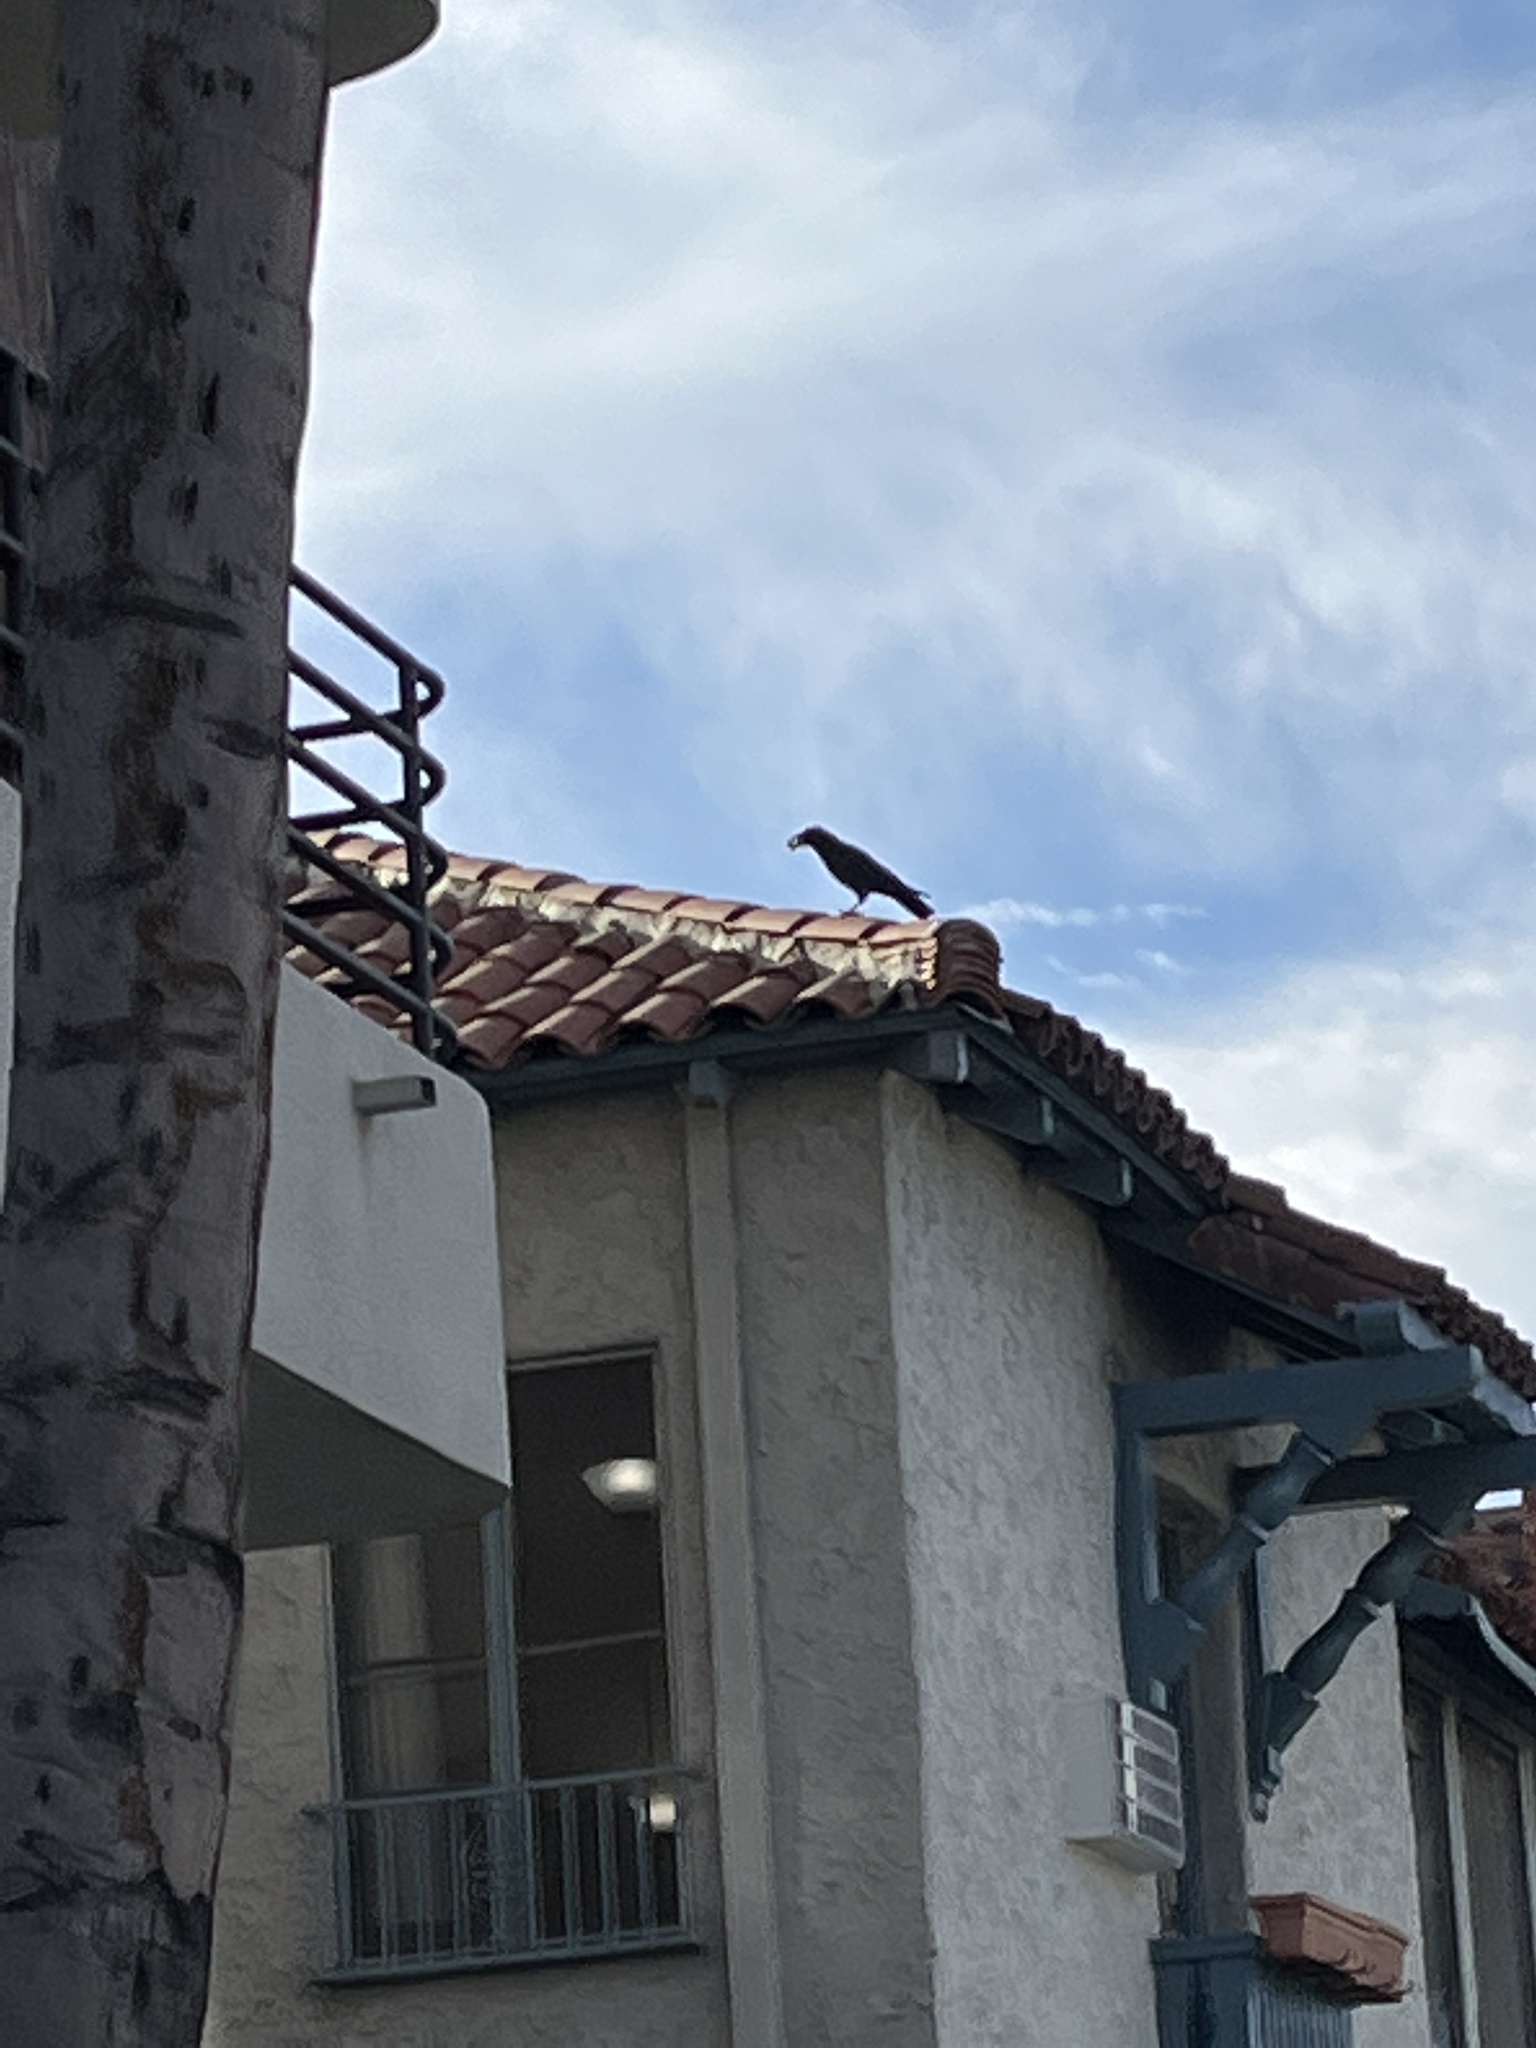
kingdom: Animalia
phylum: Chordata
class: Aves
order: Passeriformes
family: Corvidae
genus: Corvus
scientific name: Corvus brachyrhynchos
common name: American crow
